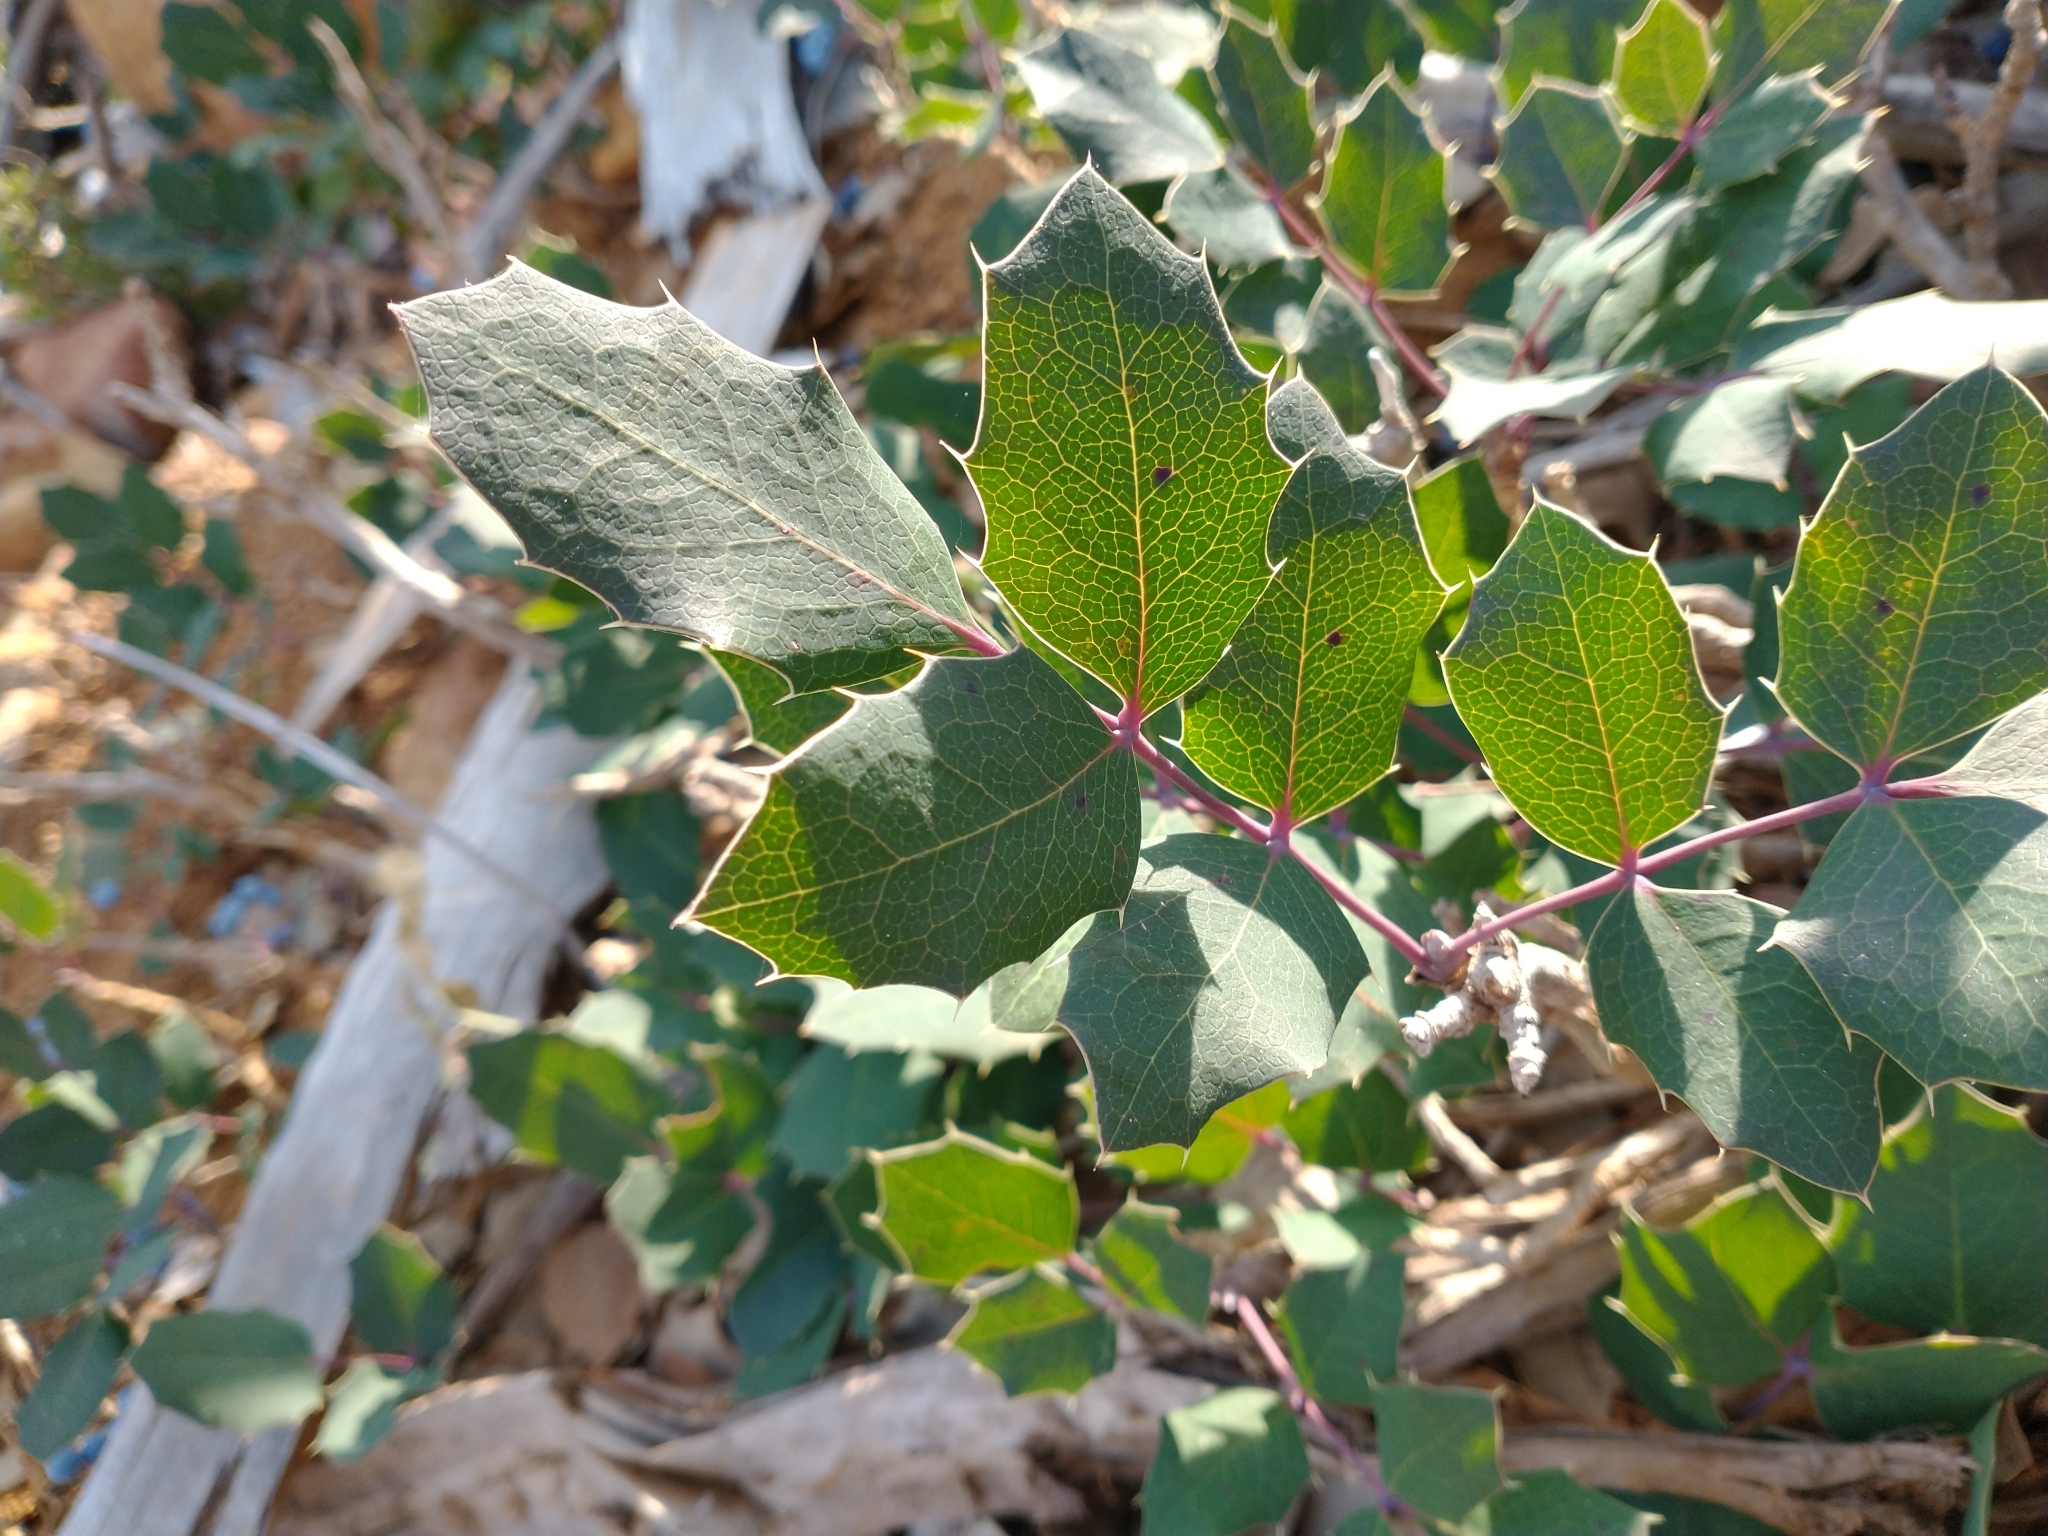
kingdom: Plantae
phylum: Tracheophyta
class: Magnoliopsida
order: Ranunculales
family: Berberidaceae
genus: Mahonia
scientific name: Mahonia repens
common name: Creeping oregon-grape
